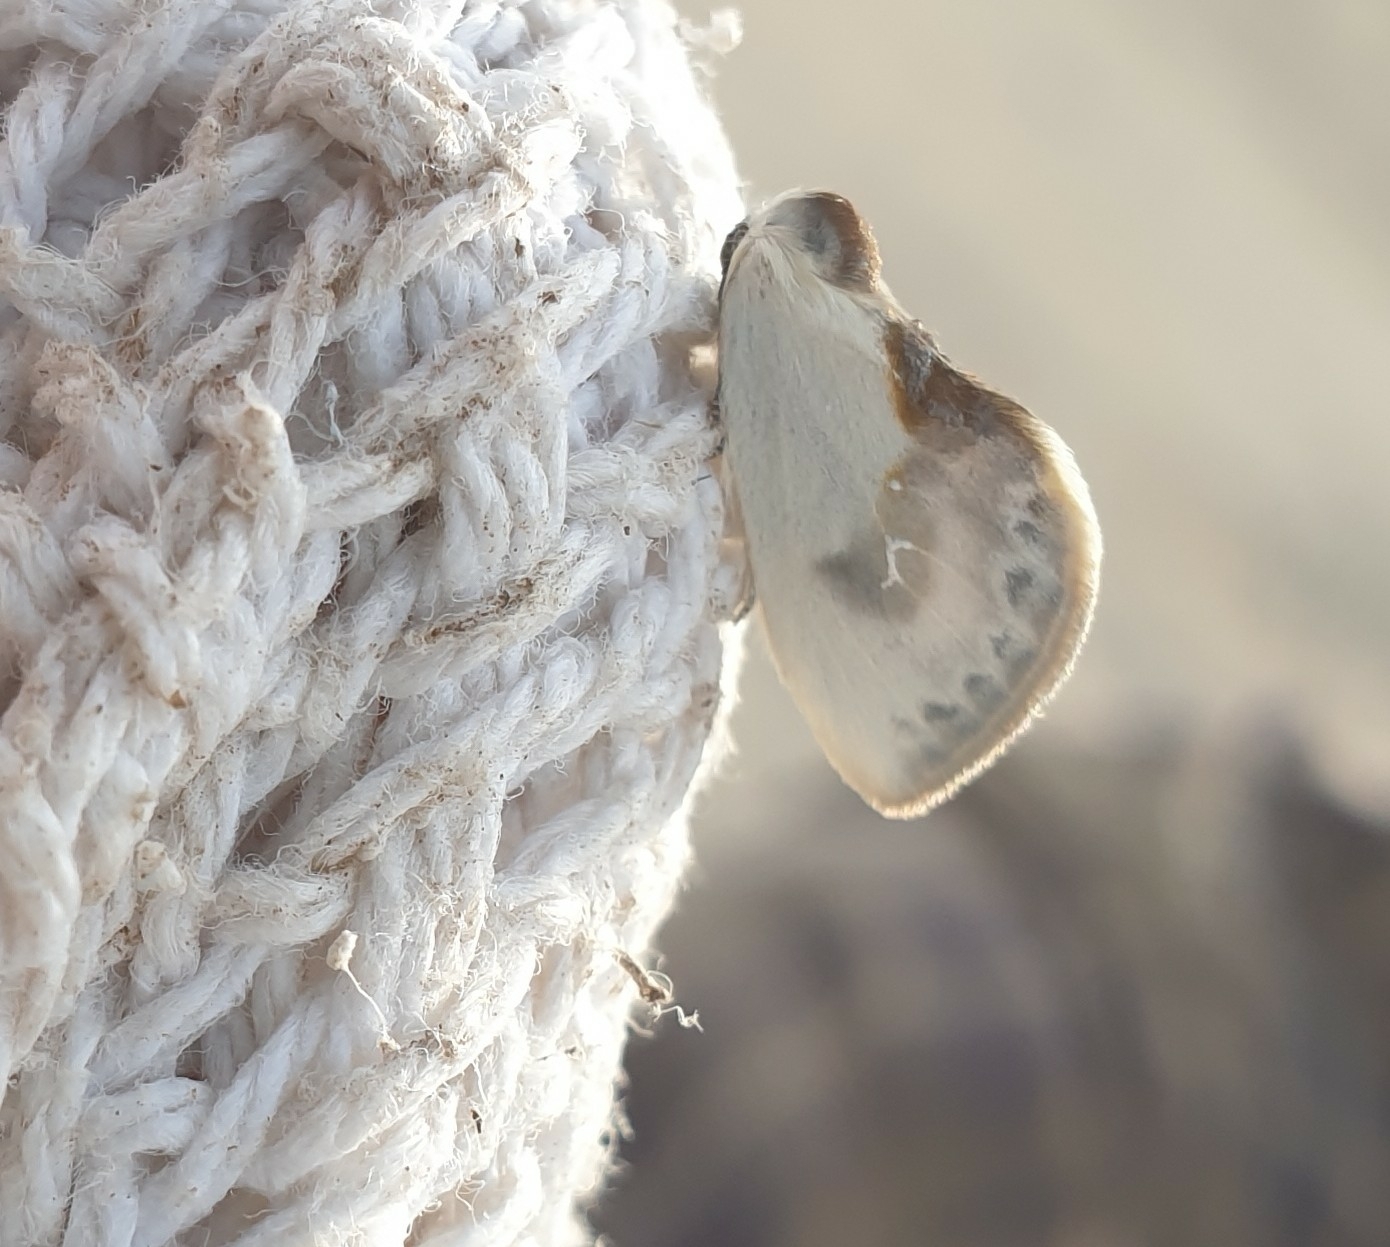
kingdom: Animalia
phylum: Arthropoda
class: Insecta
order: Lepidoptera
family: Drepanidae
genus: Cilix
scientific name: Cilix glaucata
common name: Chinese character
